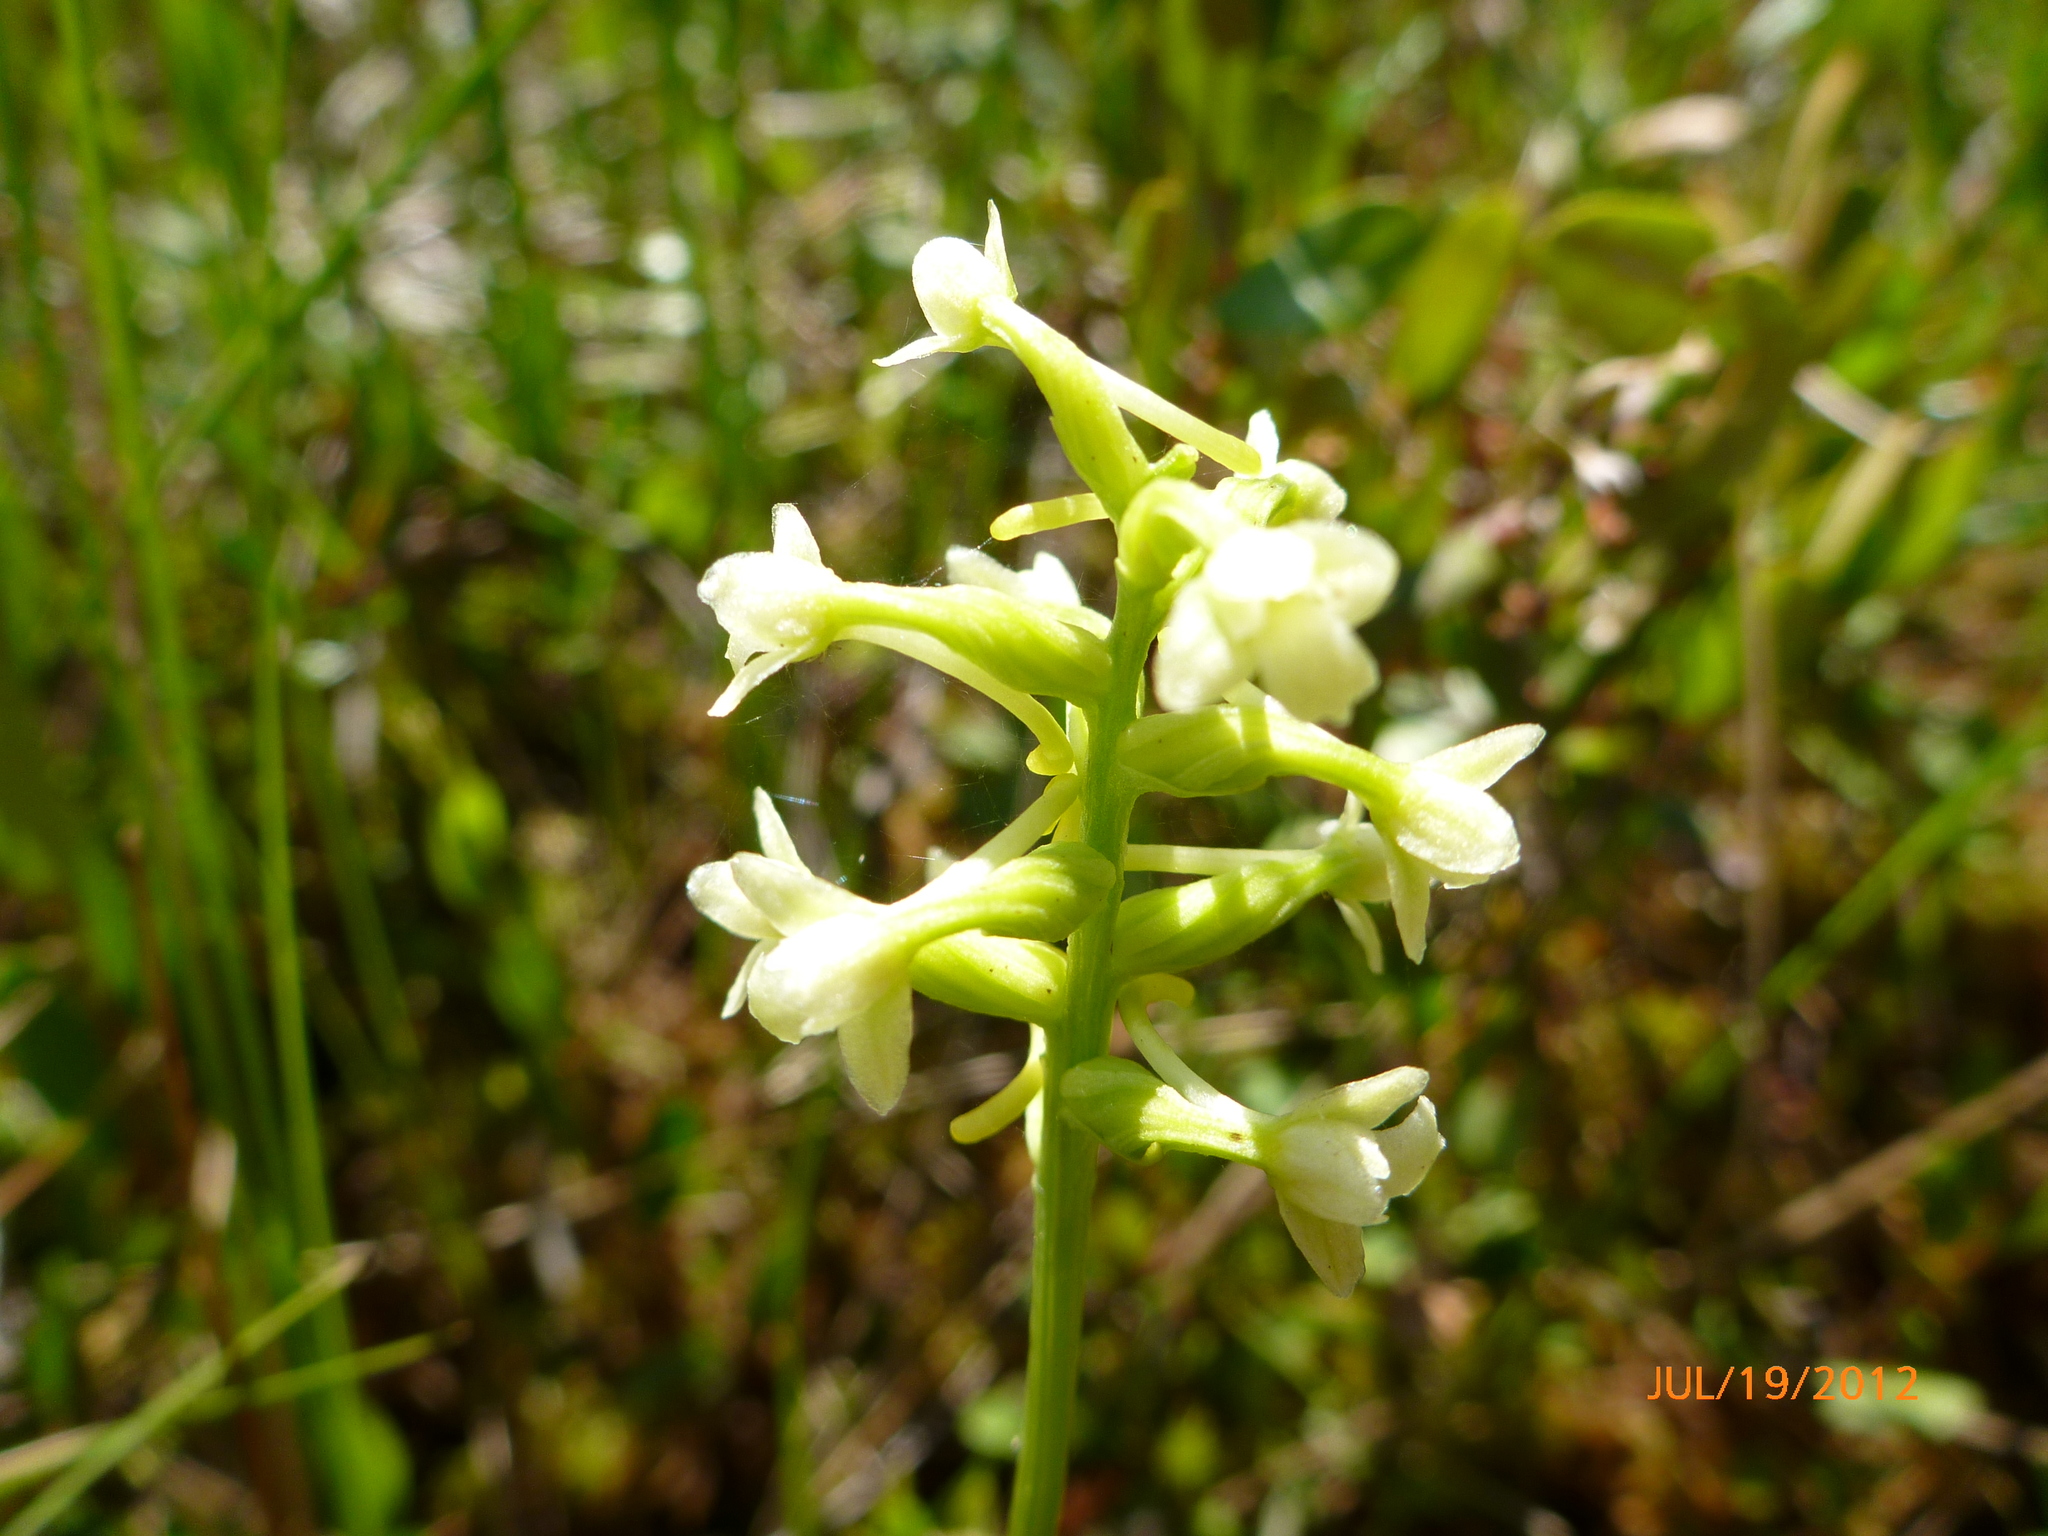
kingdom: Plantae
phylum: Tracheophyta
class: Liliopsida
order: Asparagales
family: Orchidaceae
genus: Platanthera
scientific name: Platanthera clavellata
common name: Club-spur orchid
